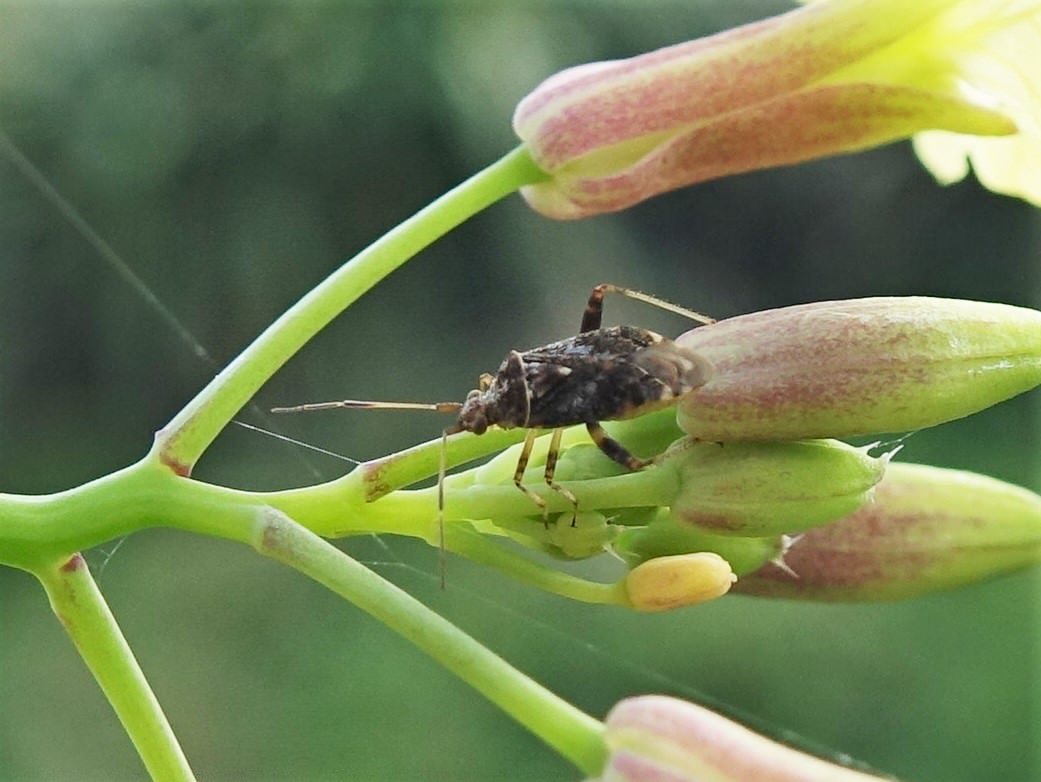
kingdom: Animalia
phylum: Arthropoda
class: Insecta
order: Hemiptera
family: Miridae
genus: Sidnia
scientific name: Sidnia kinbergi
